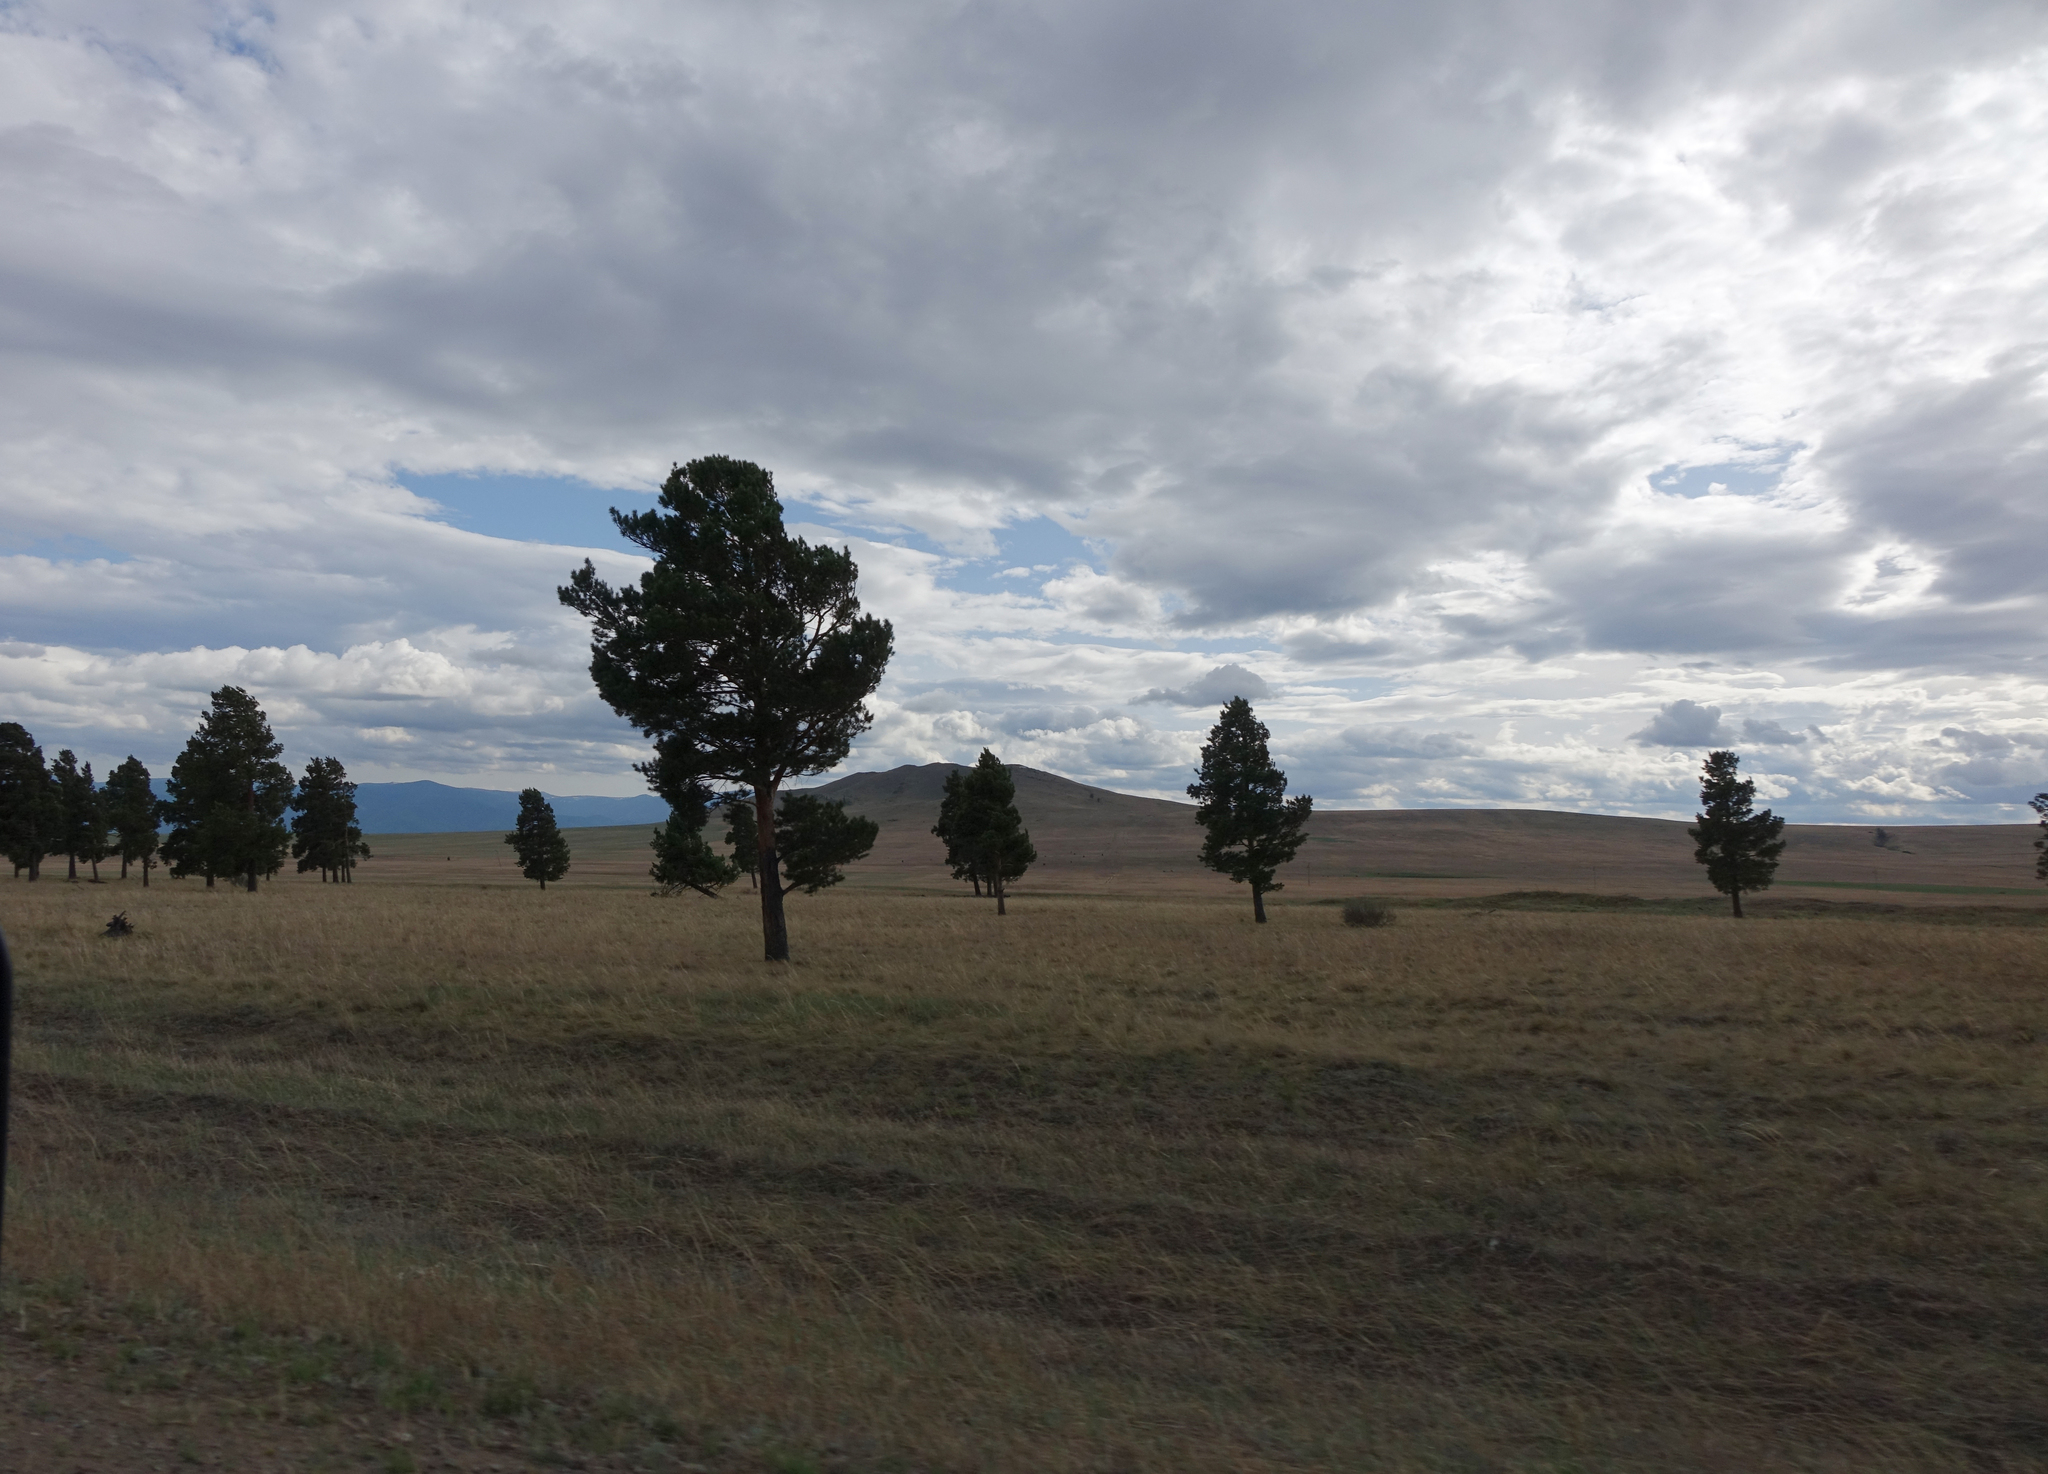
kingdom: Plantae
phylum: Tracheophyta
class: Pinopsida
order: Pinales
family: Pinaceae
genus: Pinus
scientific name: Pinus sylvestris
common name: Scots pine
